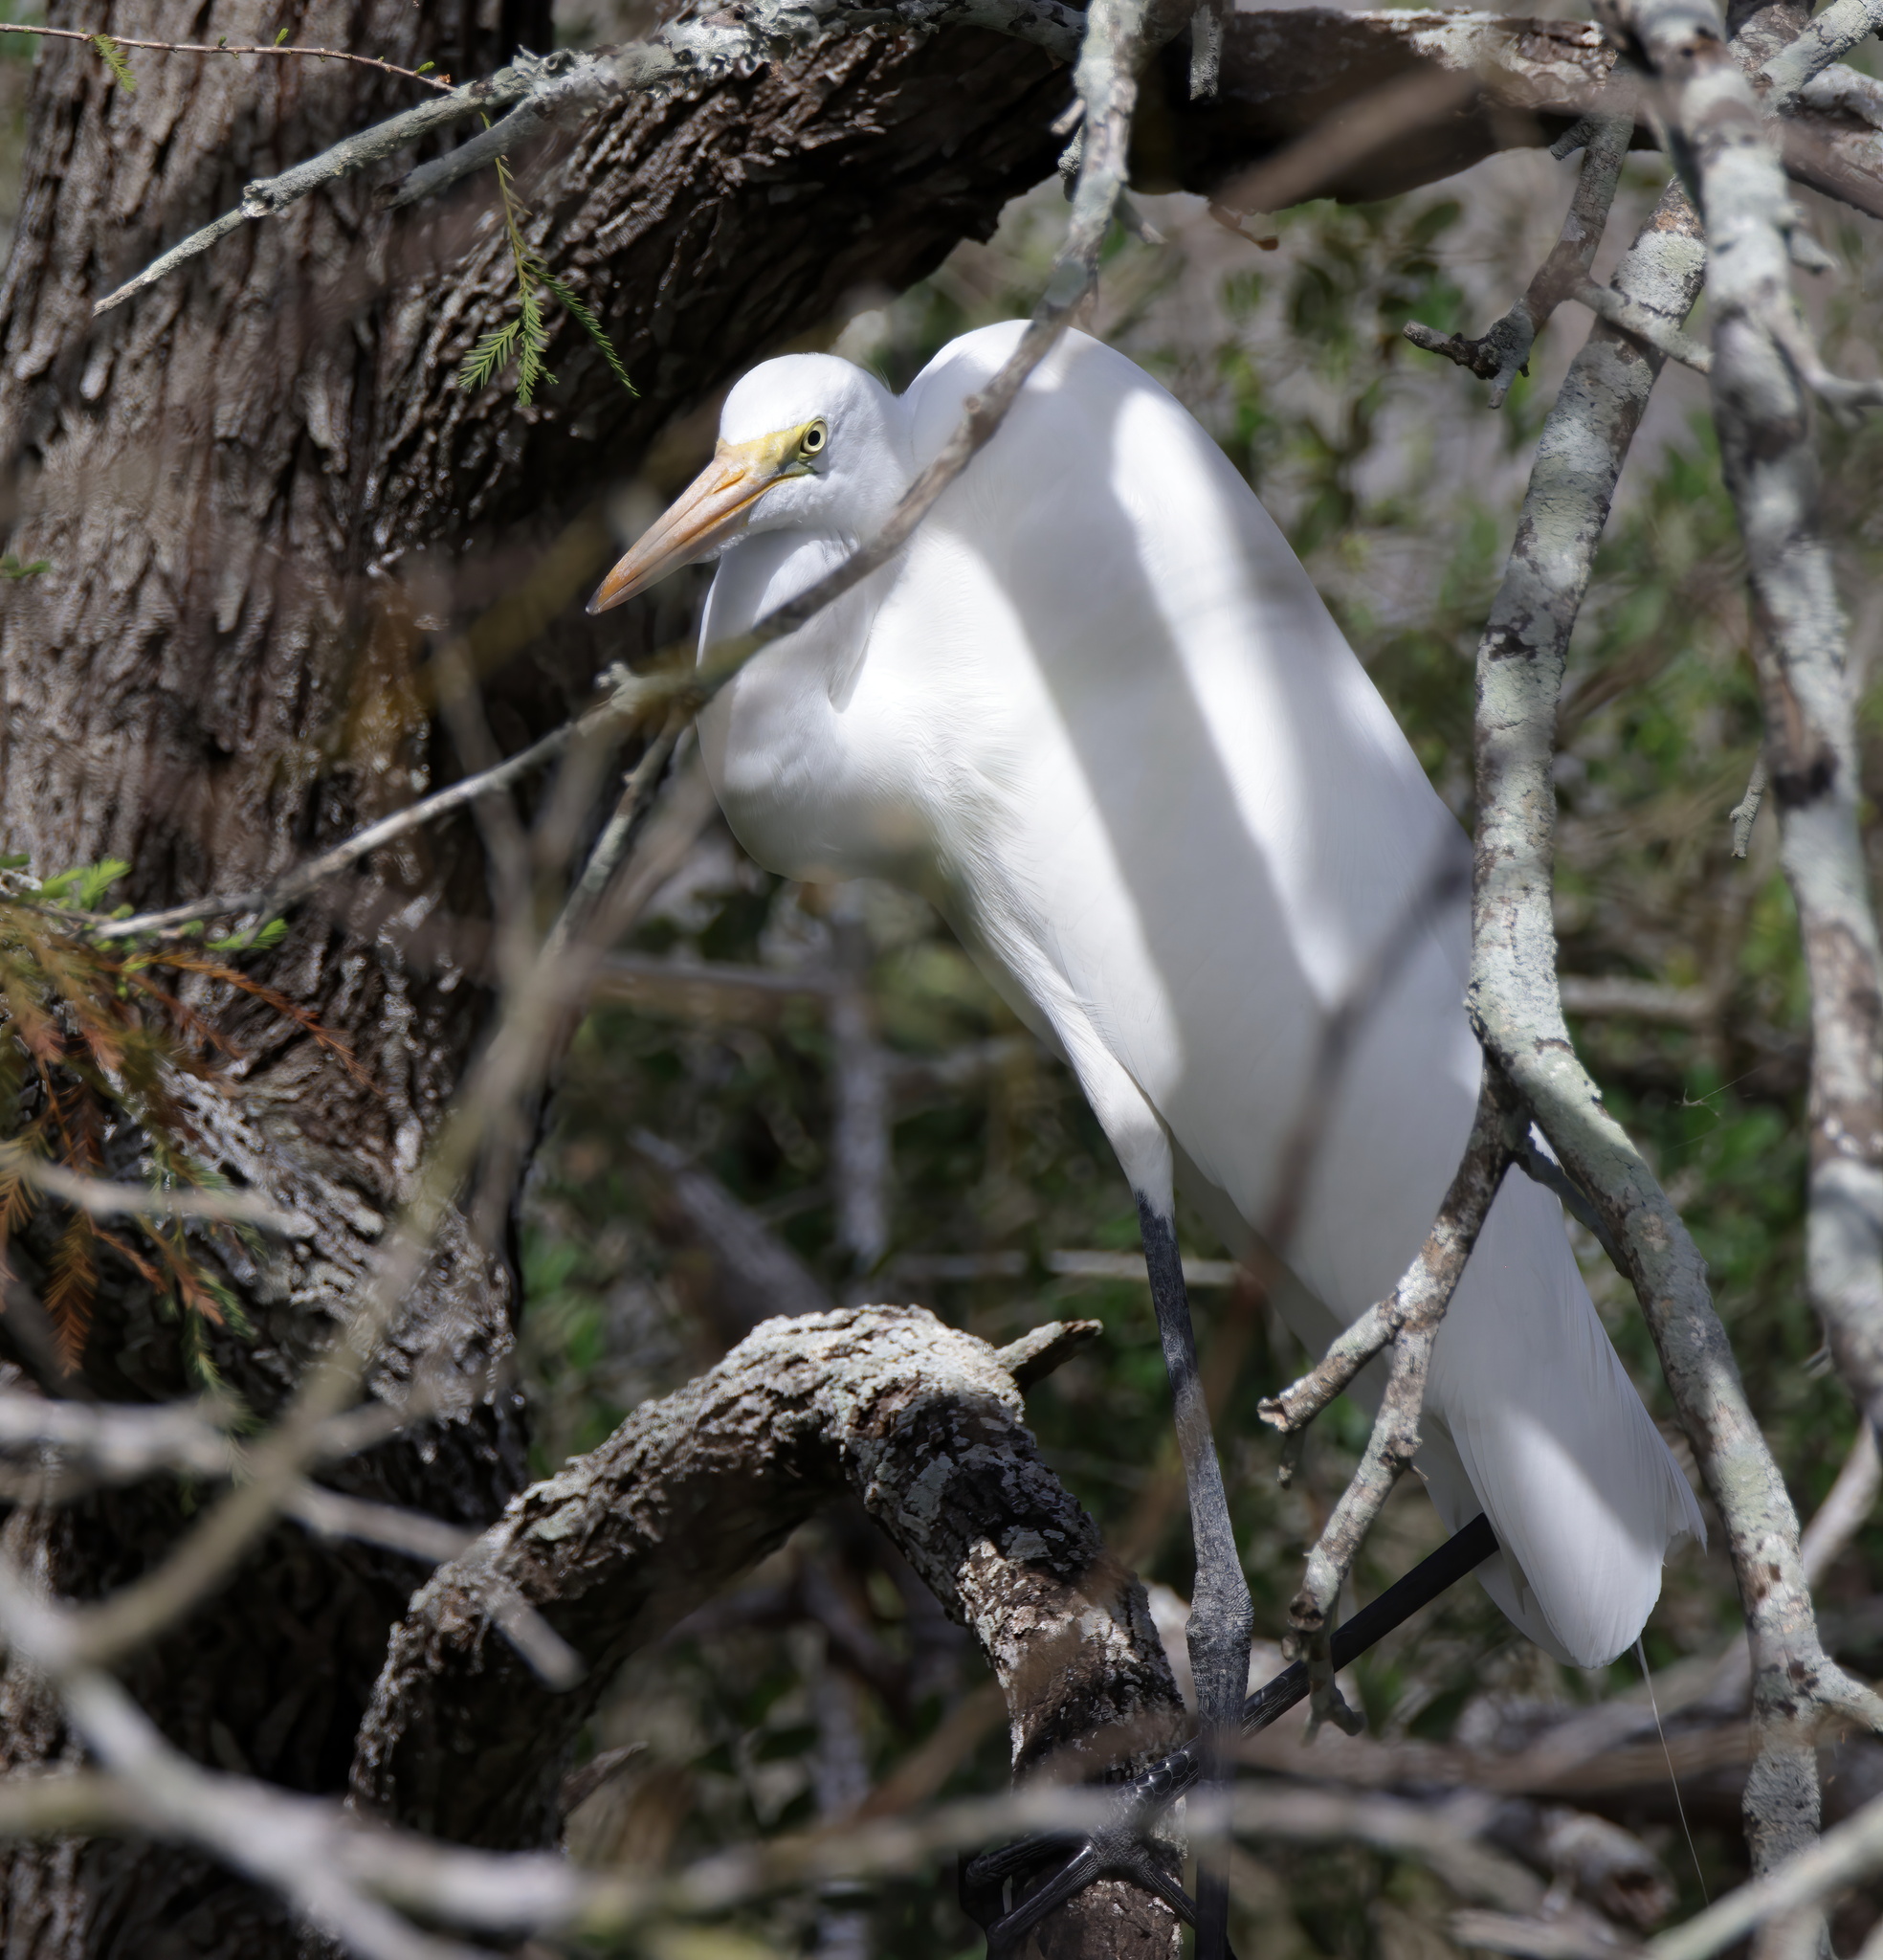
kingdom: Animalia
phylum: Chordata
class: Aves
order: Pelecaniformes
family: Ardeidae
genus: Ardea
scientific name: Ardea alba
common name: Great egret
